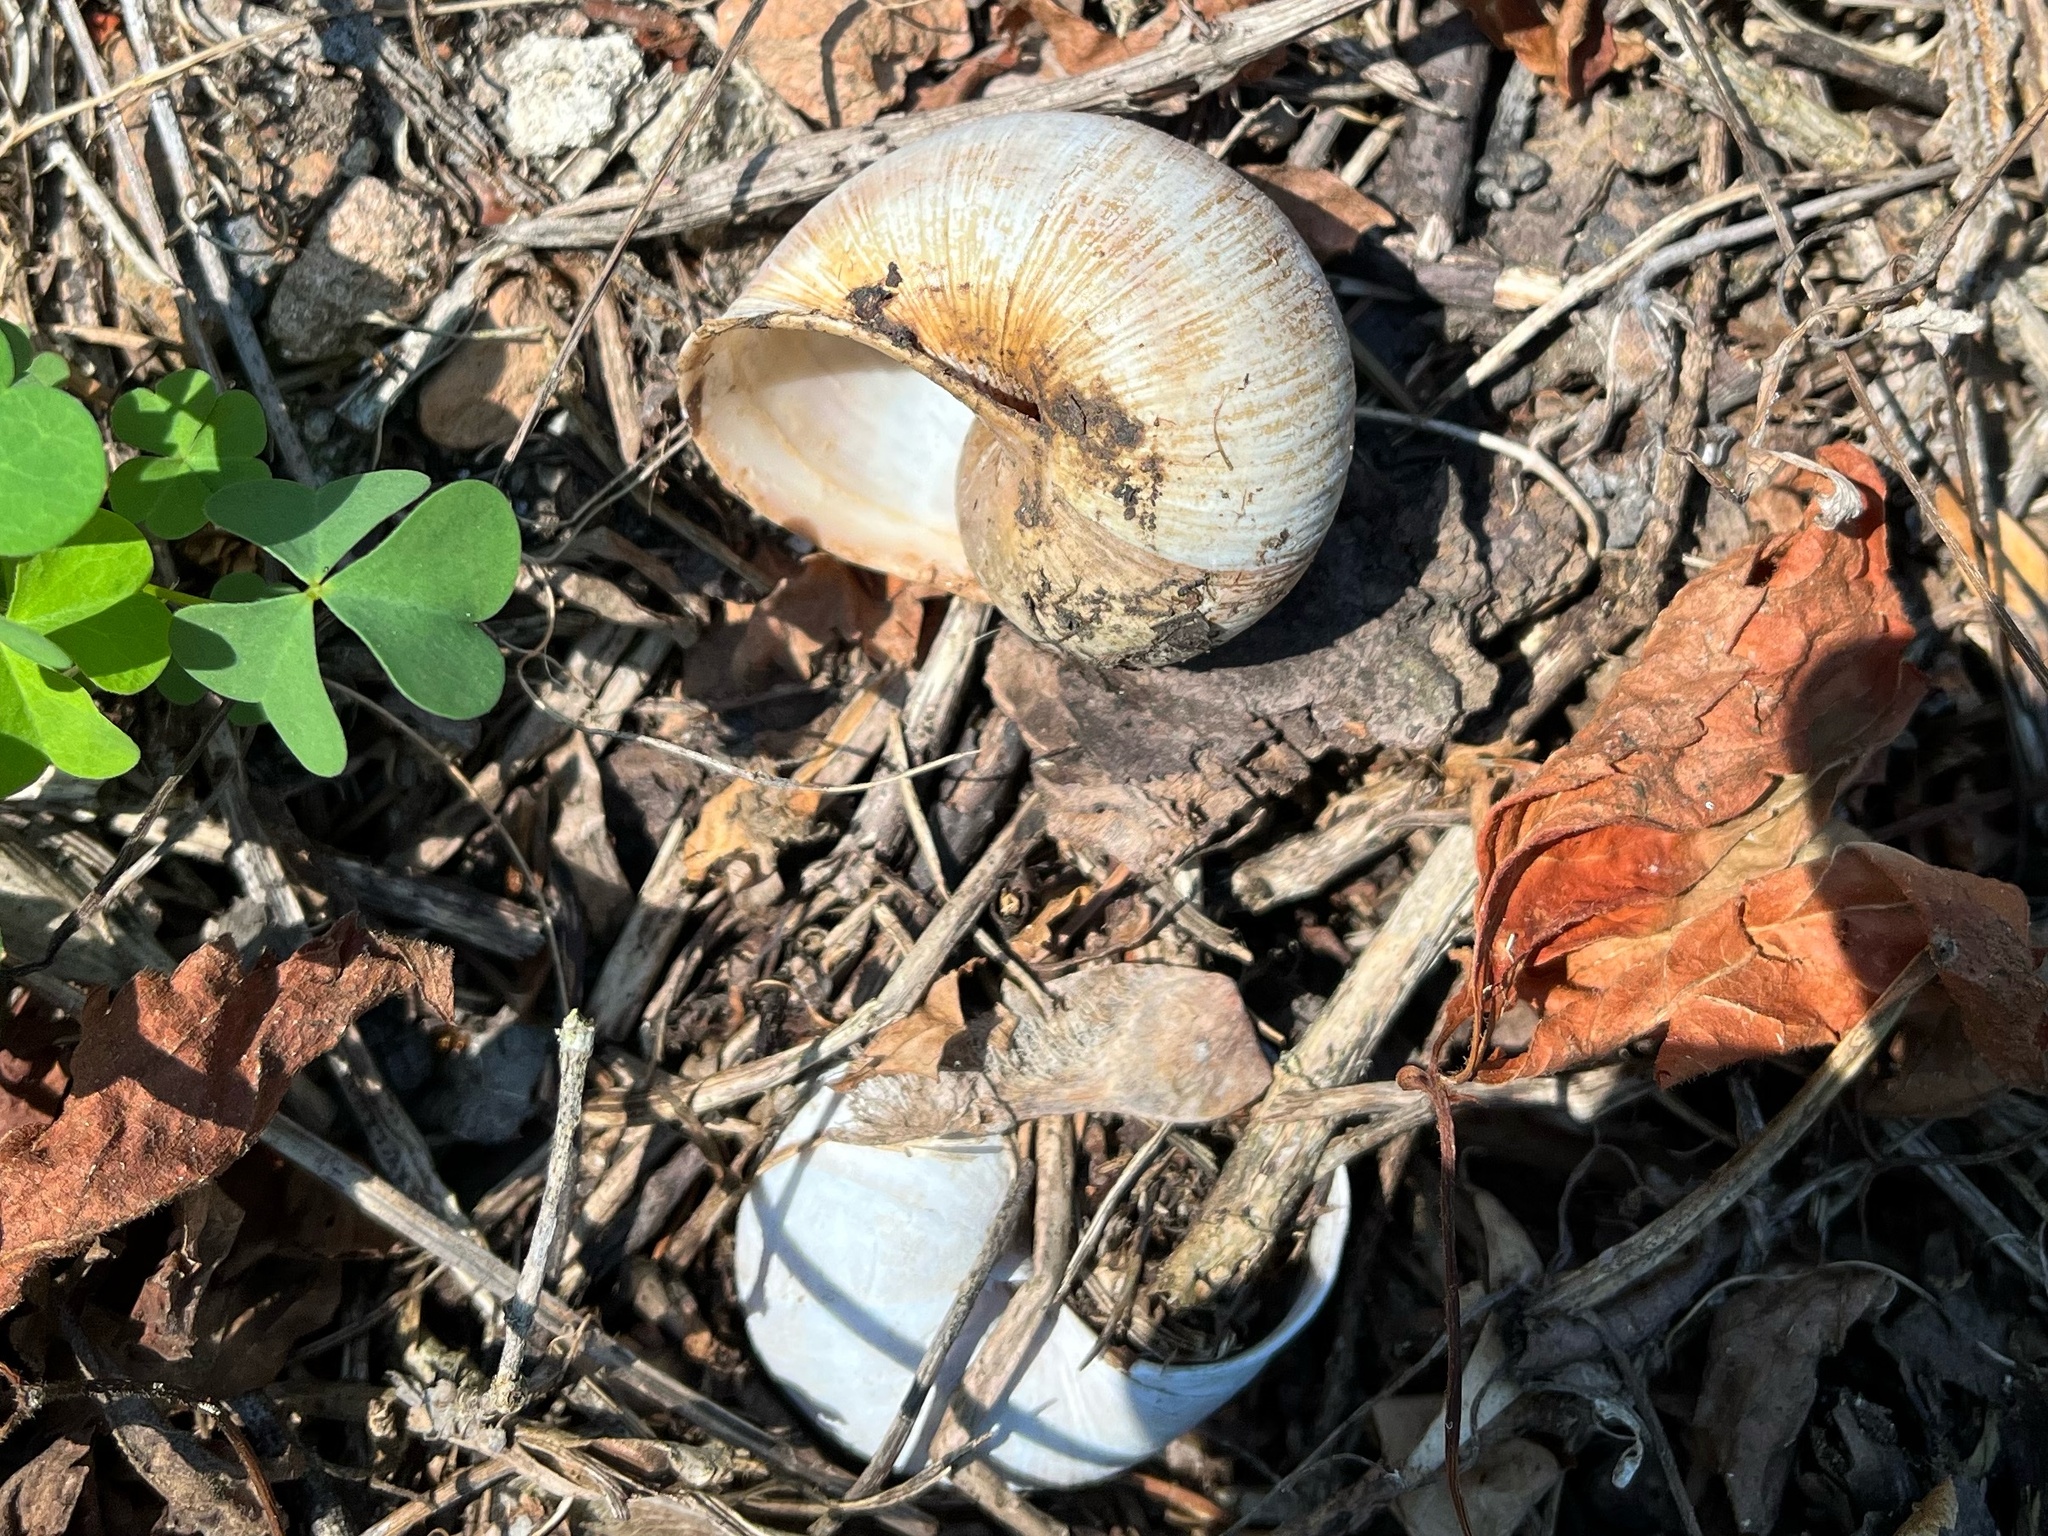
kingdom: Animalia
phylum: Mollusca
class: Gastropoda
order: Stylommatophora
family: Helicidae
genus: Helix
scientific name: Helix pomatia
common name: Roman snail
